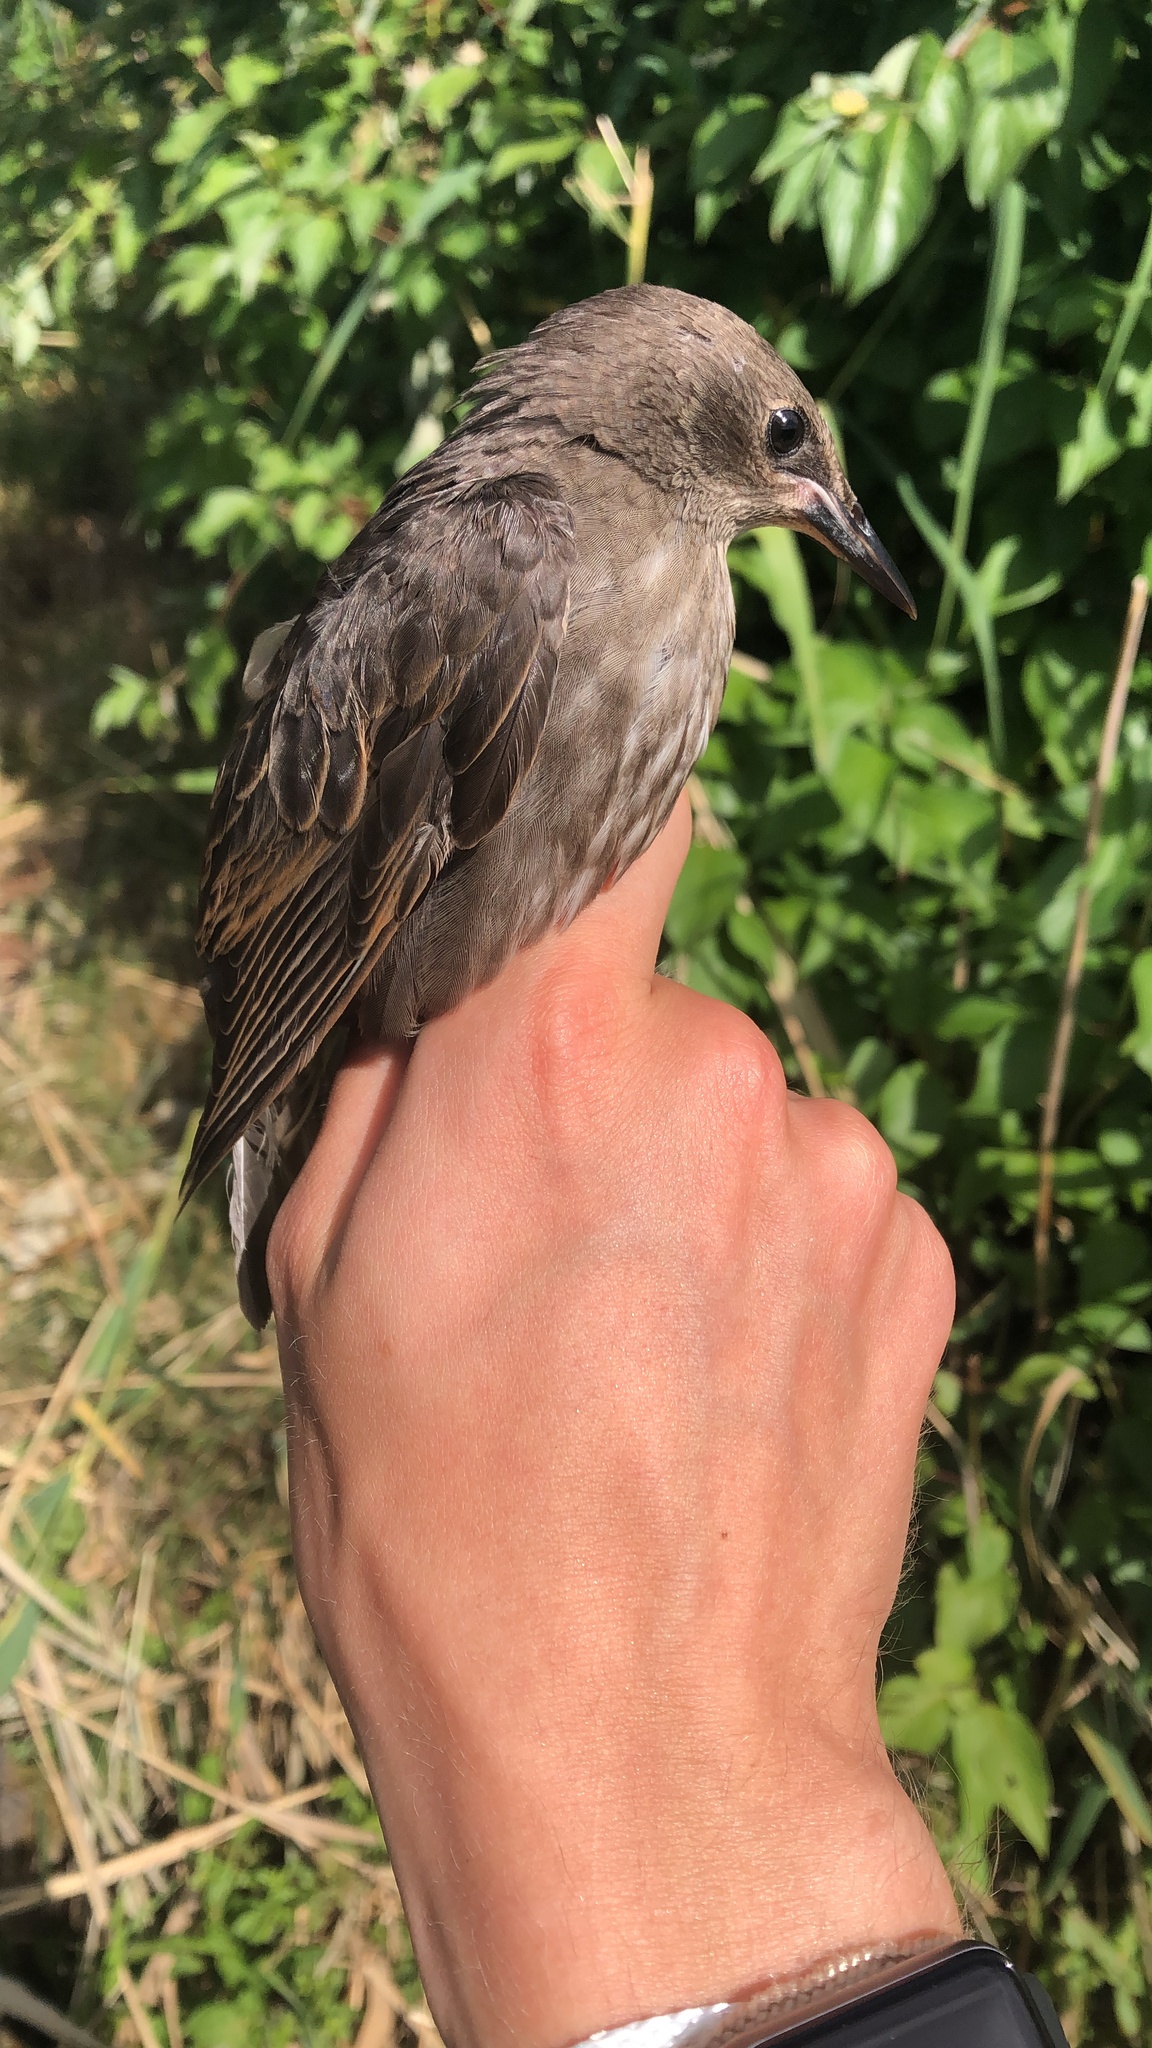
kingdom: Animalia
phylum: Chordata
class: Aves
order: Passeriformes
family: Sturnidae
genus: Sturnus
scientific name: Sturnus vulgaris
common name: Common starling
